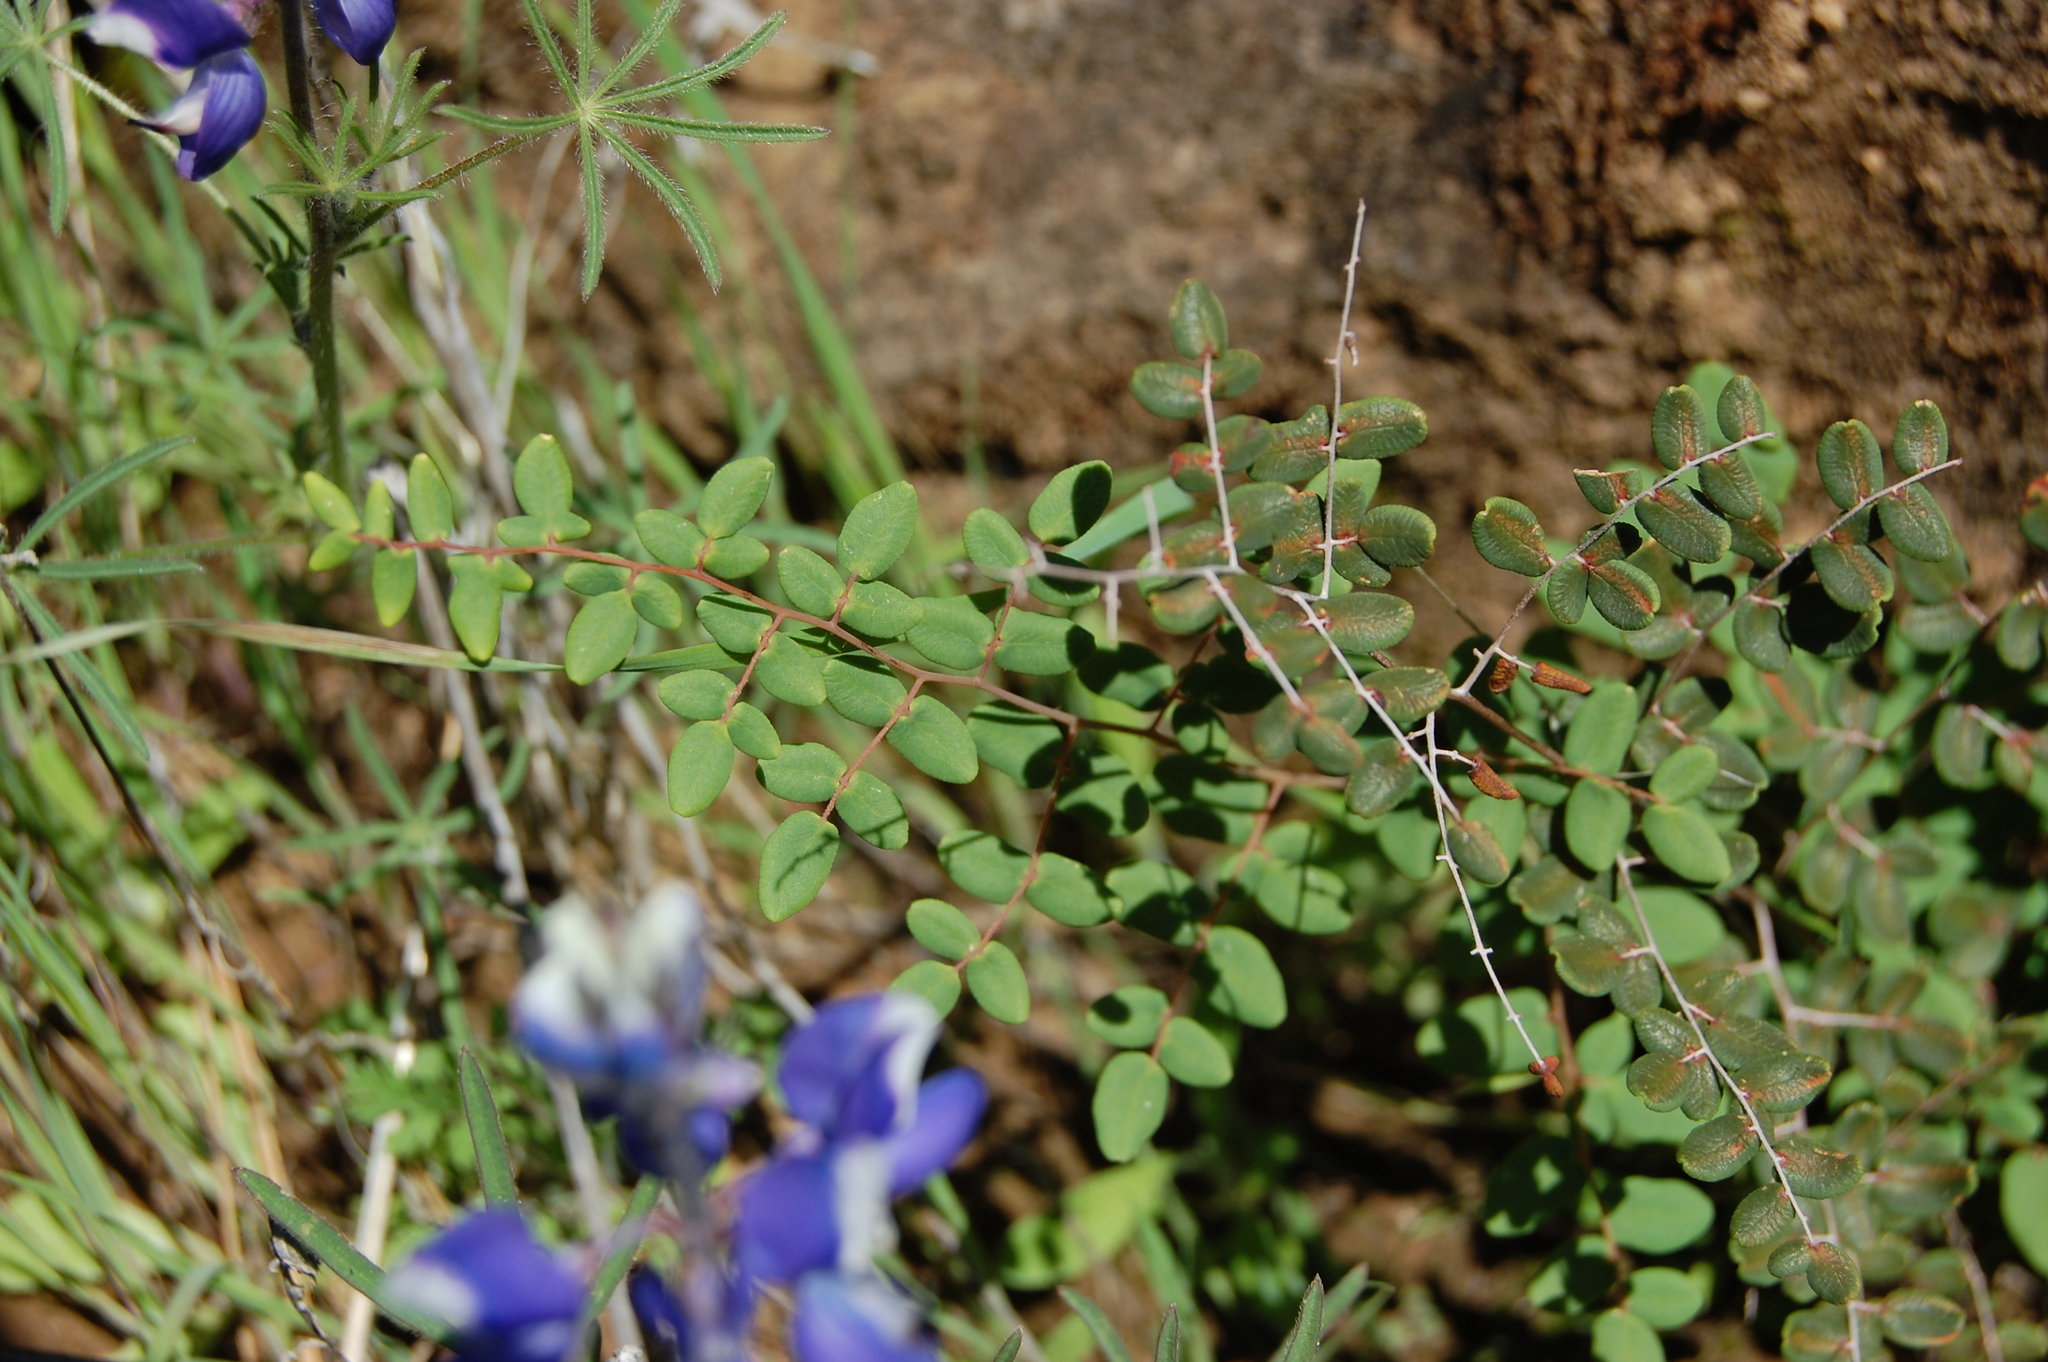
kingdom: Plantae
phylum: Tracheophyta
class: Polypodiopsida
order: Polypodiales
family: Pteridaceae
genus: Pellaea
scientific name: Pellaea andromedifolia
